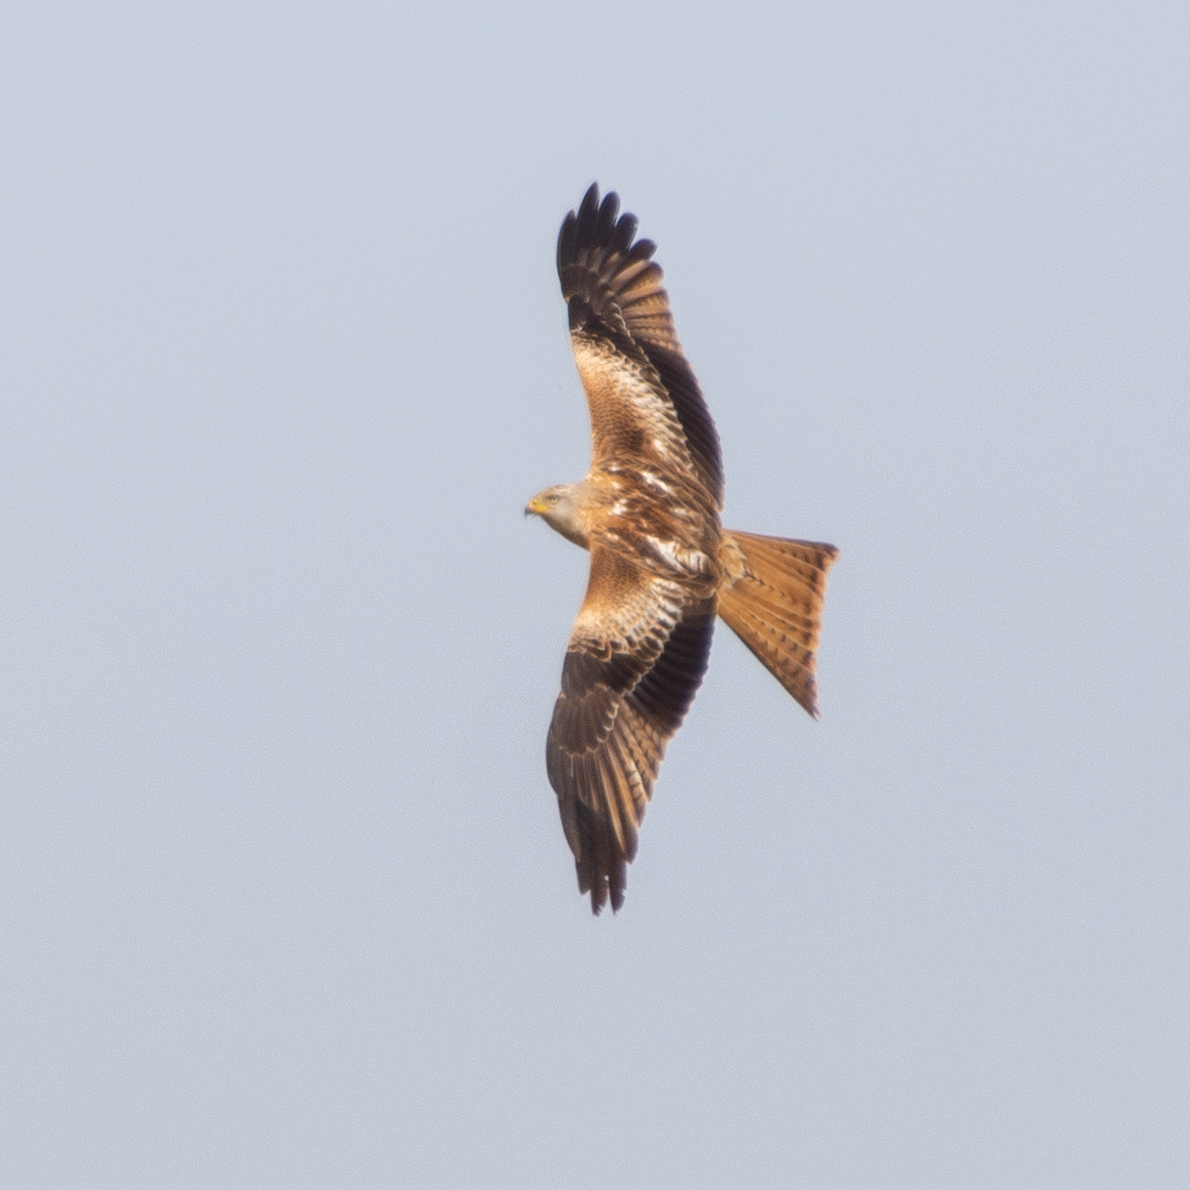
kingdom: Animalia
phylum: Chordata
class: Aves
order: Accipitriformes
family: Accipitridae
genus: Milvus
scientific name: Milvus milvus
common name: Red kite
